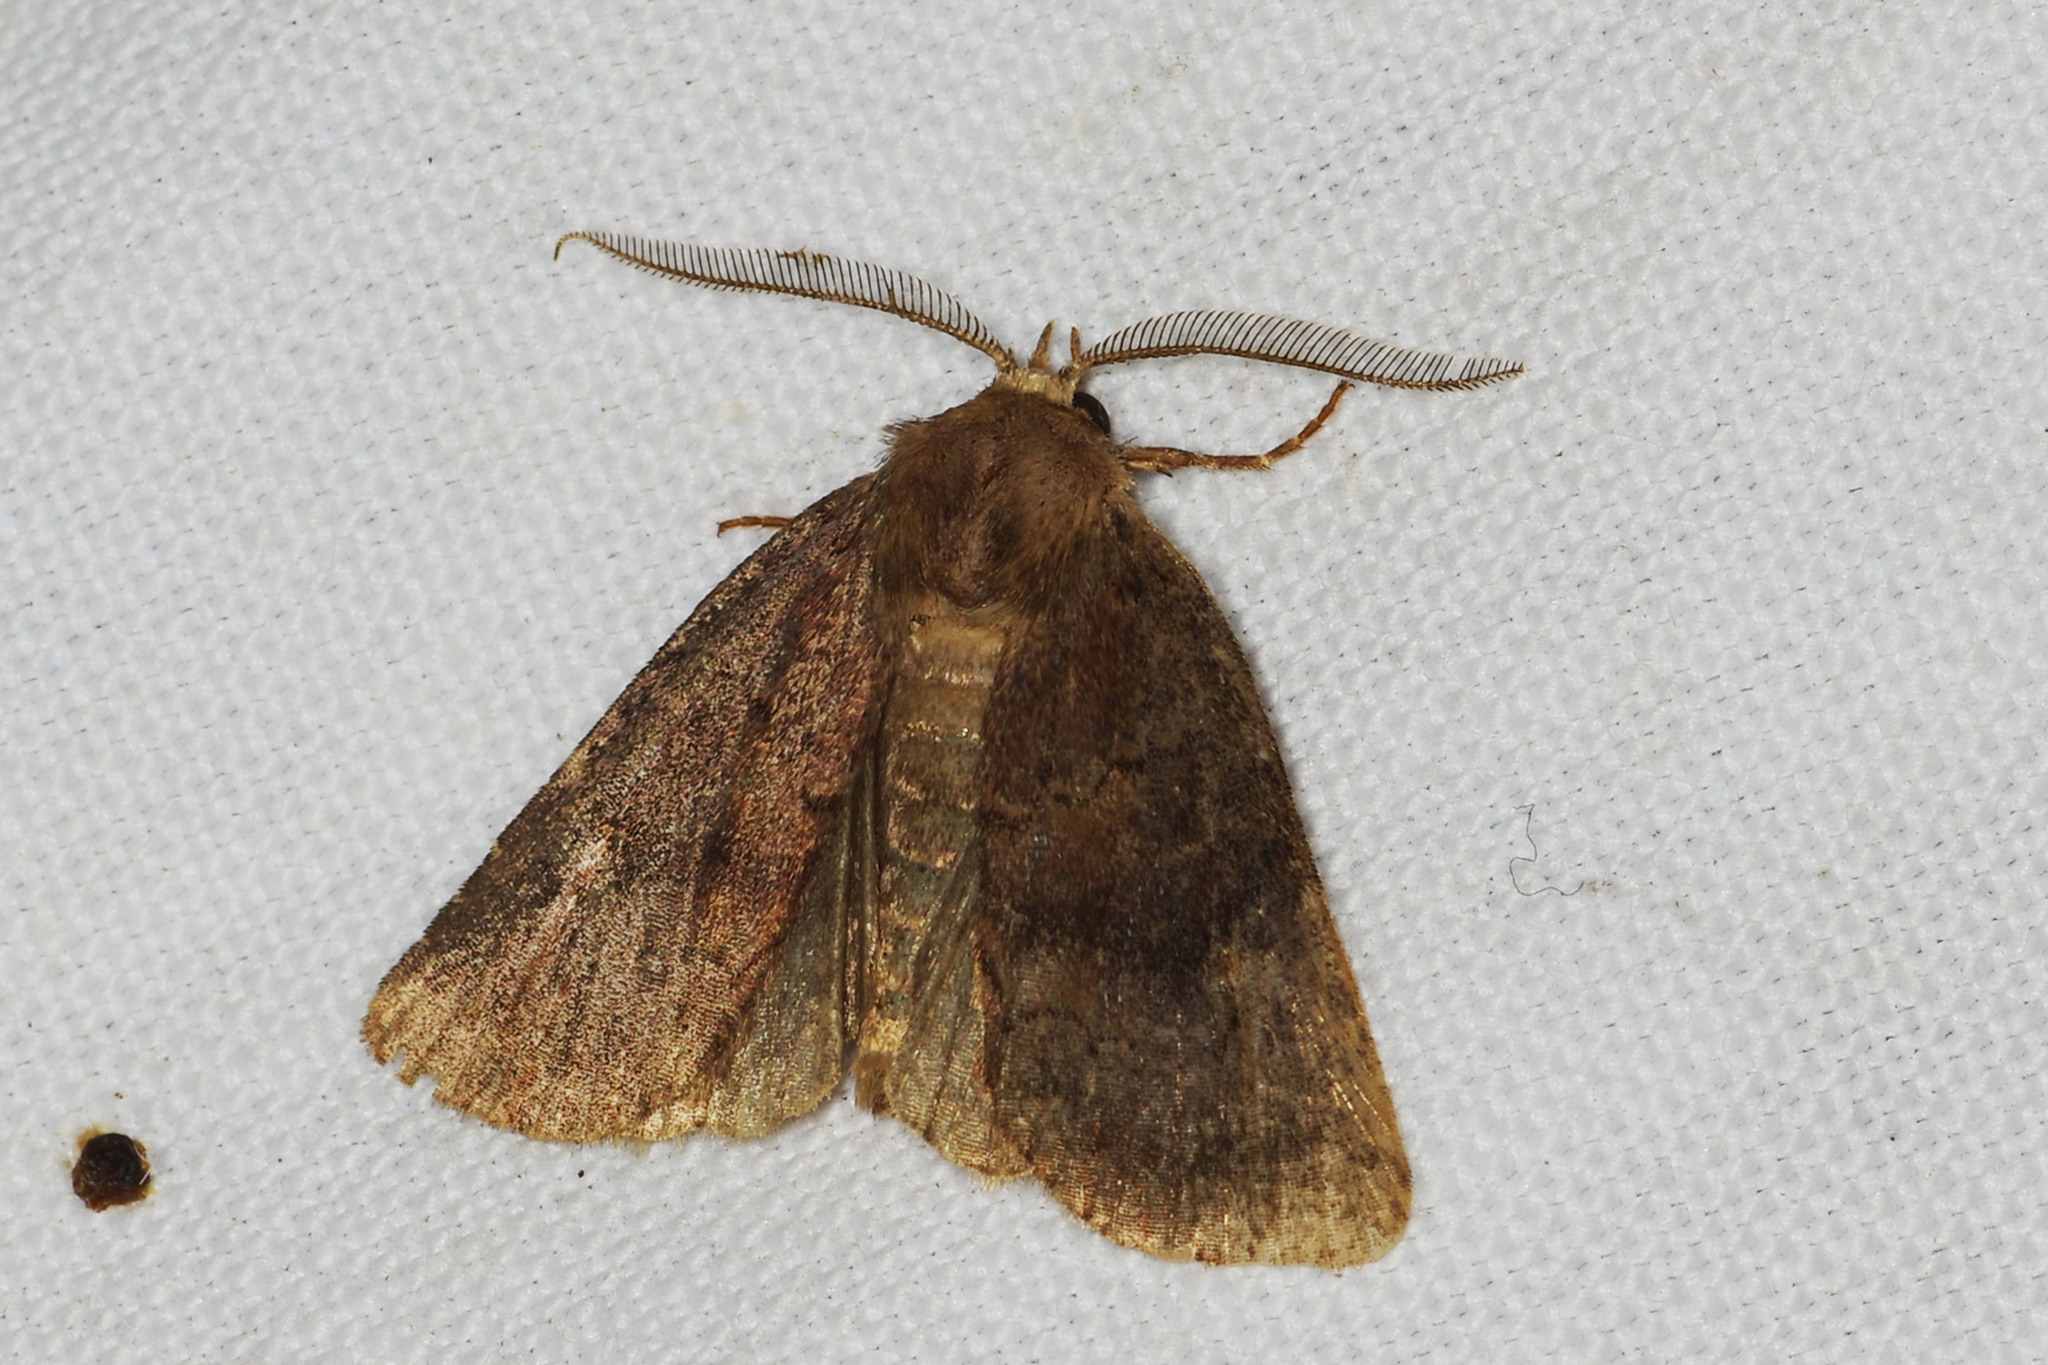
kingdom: Animalia
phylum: Arthropoda
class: Insecta
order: Lepidoptera
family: Noctuidae
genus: Charanyca
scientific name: Charanyca ferruginea
